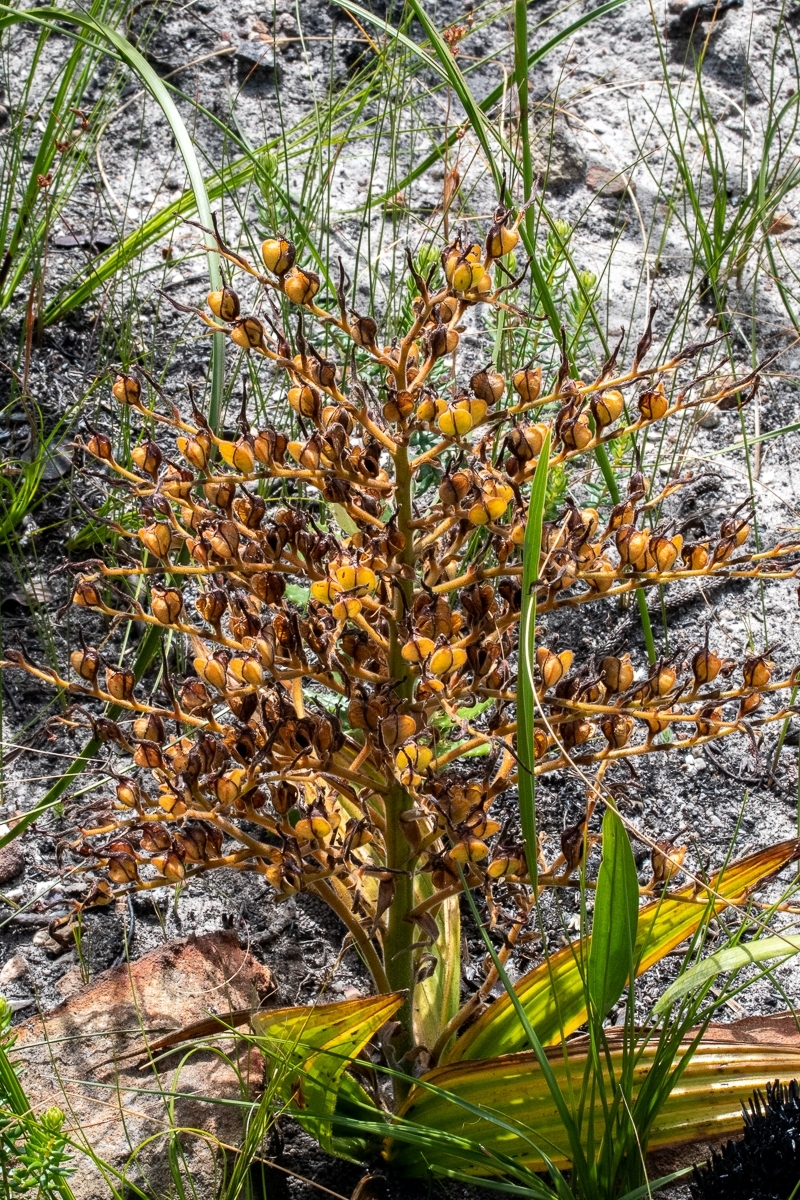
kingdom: Plantae
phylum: Tracheophyta
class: Liliopsida
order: Commelinales
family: Haemodoraceae
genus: Wachendorfia
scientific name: Wachendorfia paniculata
